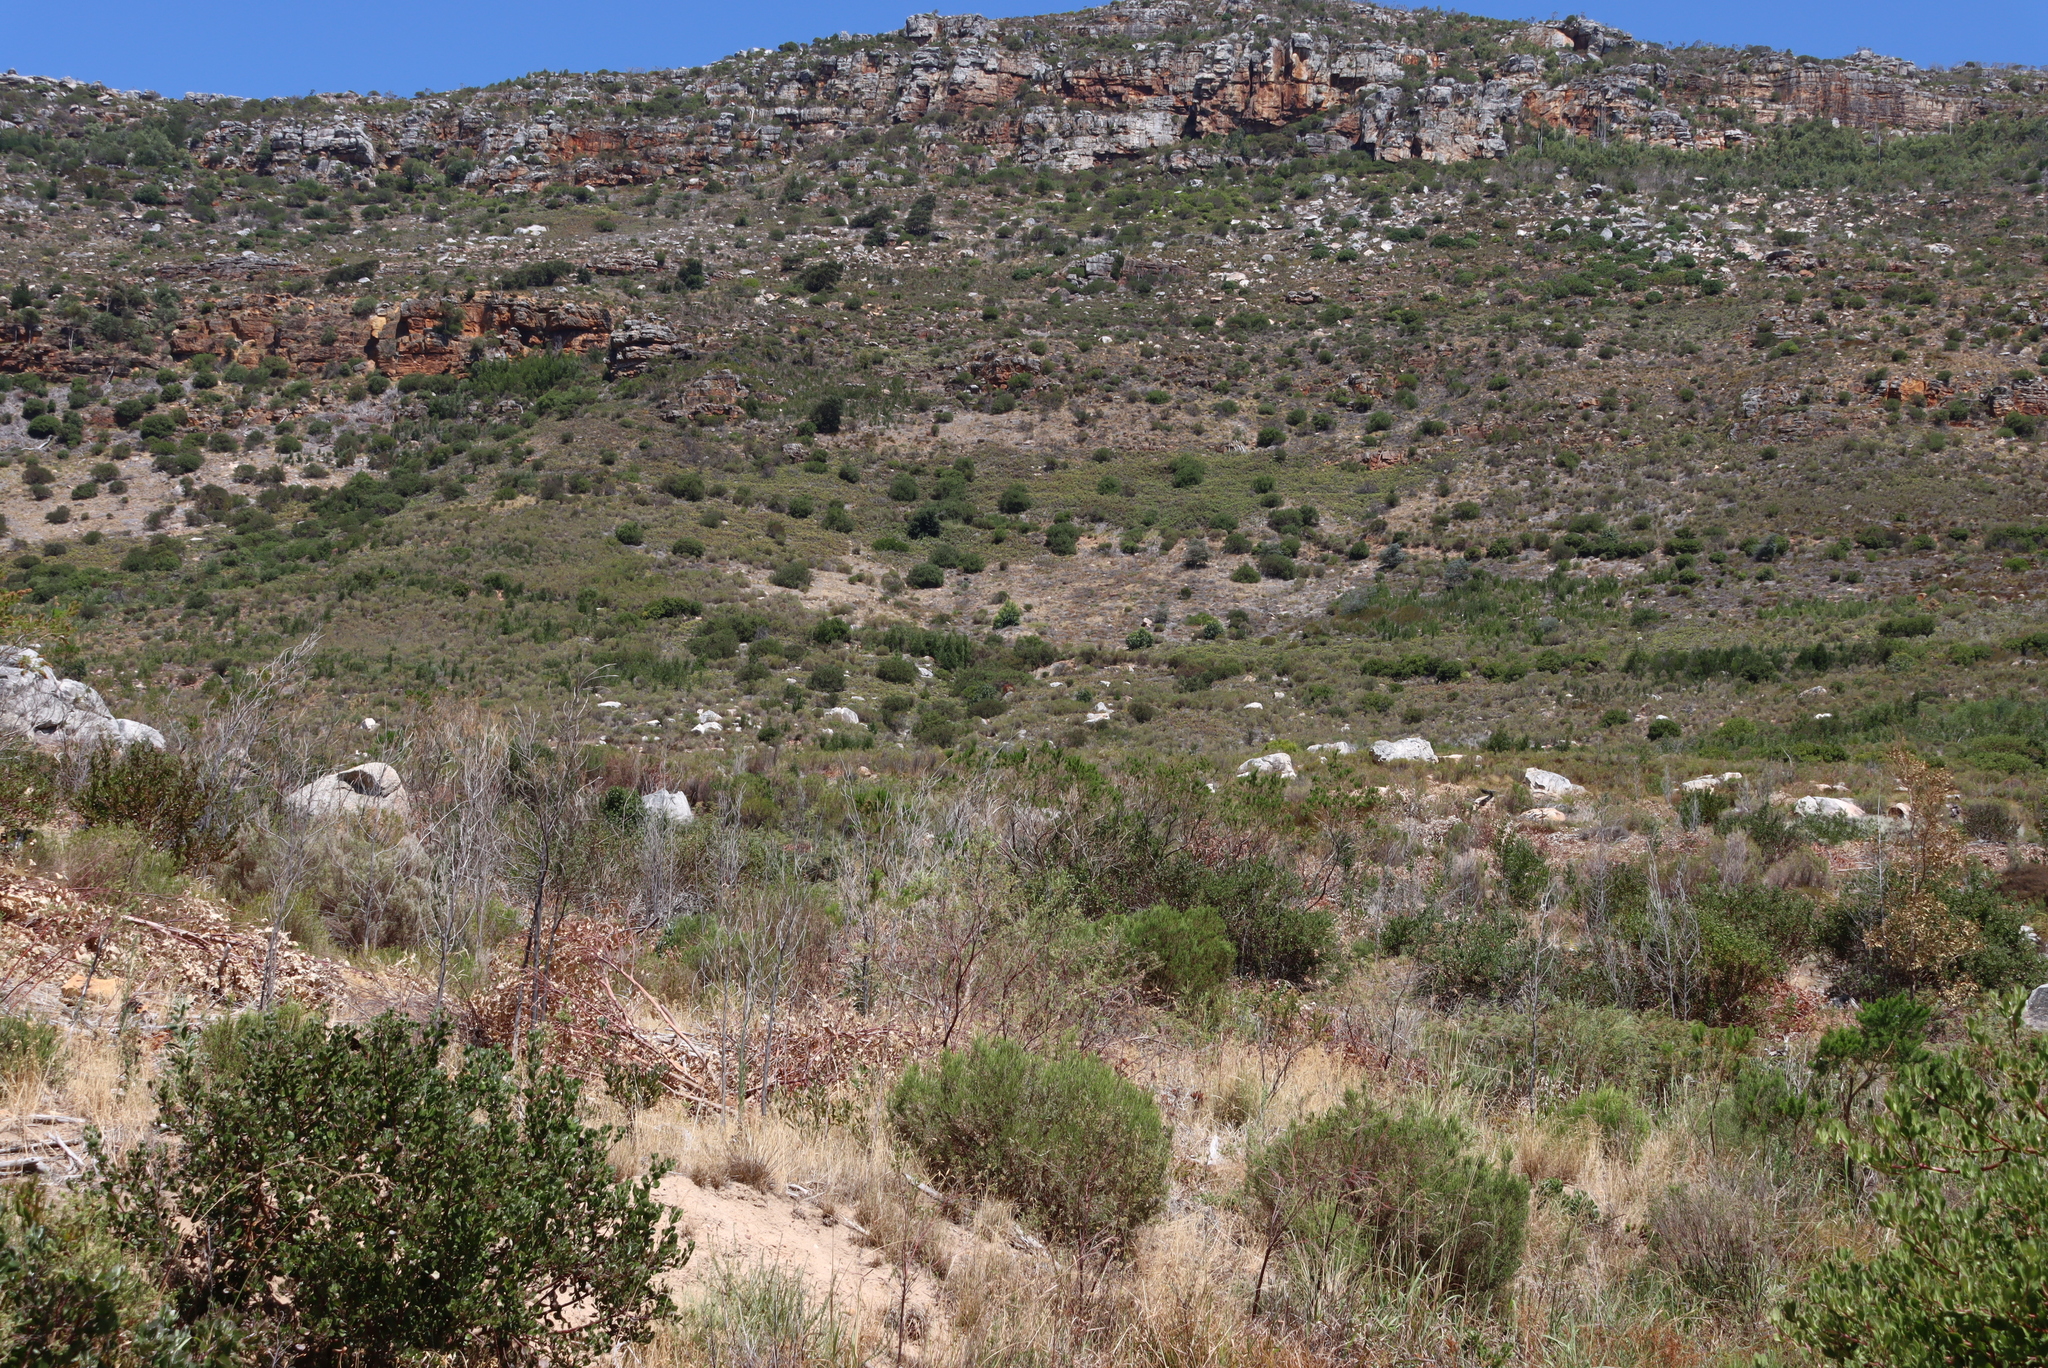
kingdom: Plantae
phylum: Tracheophyta
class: Magnoliopsida
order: Fabales
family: Fabaceae
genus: Acacia
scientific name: Acacia melanoxylon
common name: Blackwood
